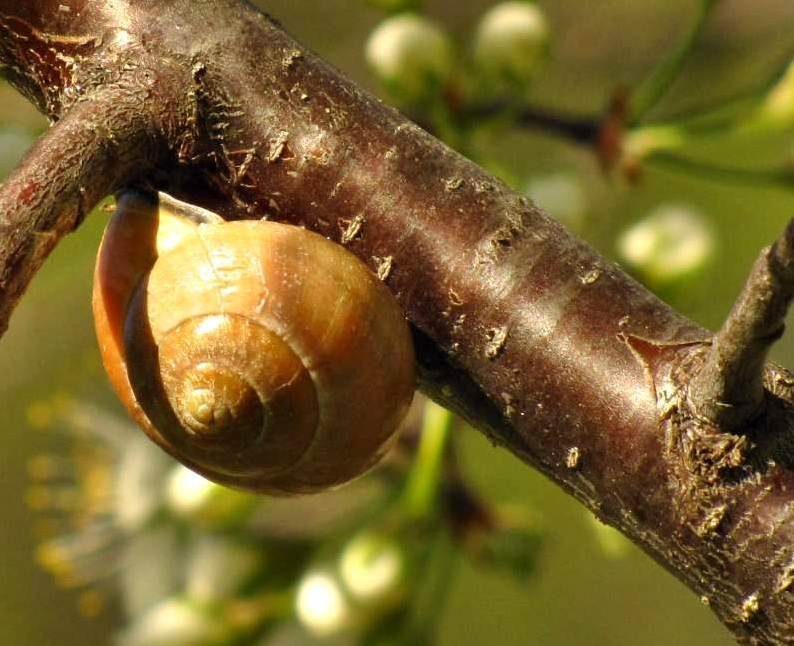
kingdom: Animalia
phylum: Mollusca
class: Gastropoda
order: Stylommatophora
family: Helicidae
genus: Cepaea
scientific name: Cepaea nemoralis
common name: Grovesnail
